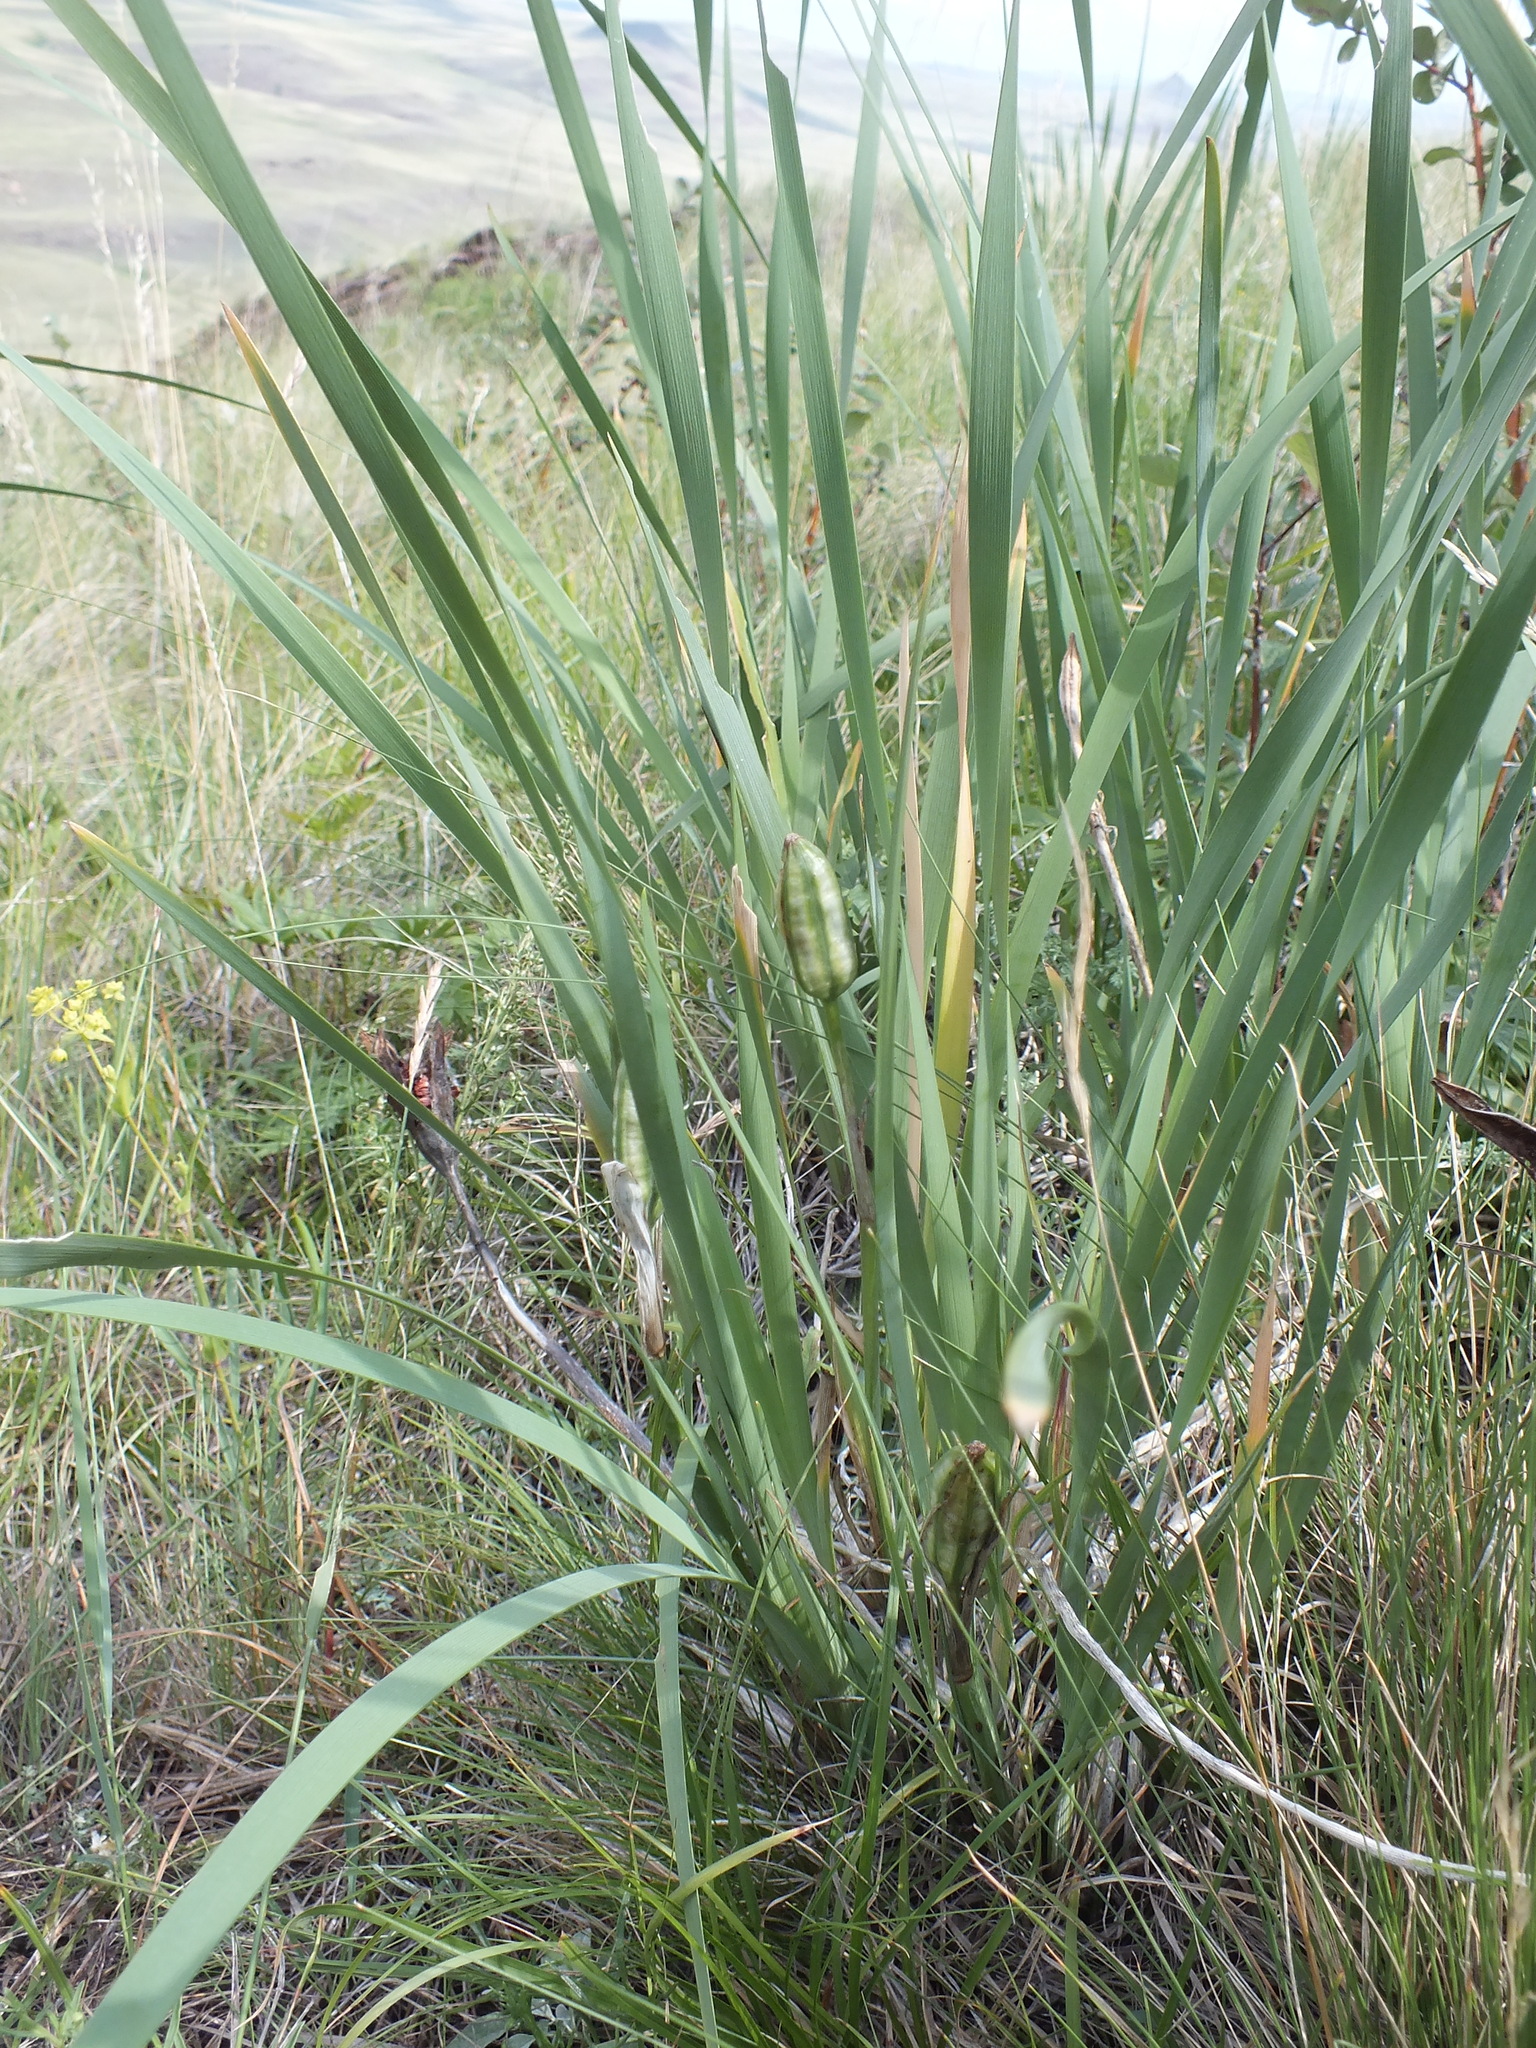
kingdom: Plantae
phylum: Tracheophyta
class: Liliopsida
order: Asparagales
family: Iridaceae
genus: Iris
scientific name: Iris lactea
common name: White-flower chinese iris
